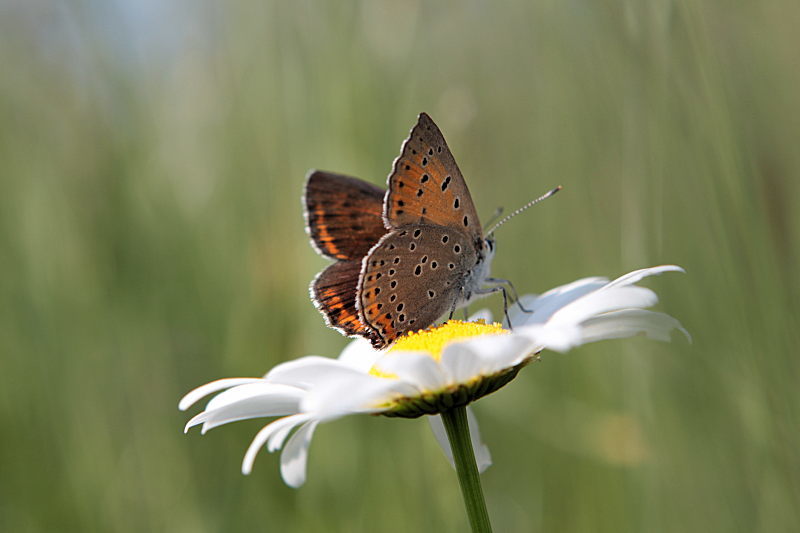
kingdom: Animalia
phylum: Arthropoda
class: Insecta
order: Lepidoptera
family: Lycaenidae
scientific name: Lycaenidae
